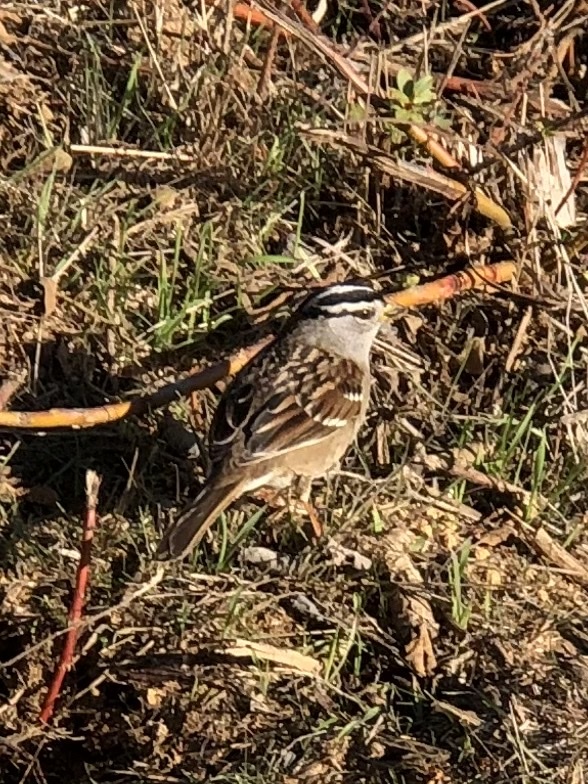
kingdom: Animalia
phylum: Chordata
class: Aves
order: Passeriformes
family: Passerellidae
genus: Zonotrichia
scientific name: Zonotrichia leucophrys
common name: White-crowned sparrow
